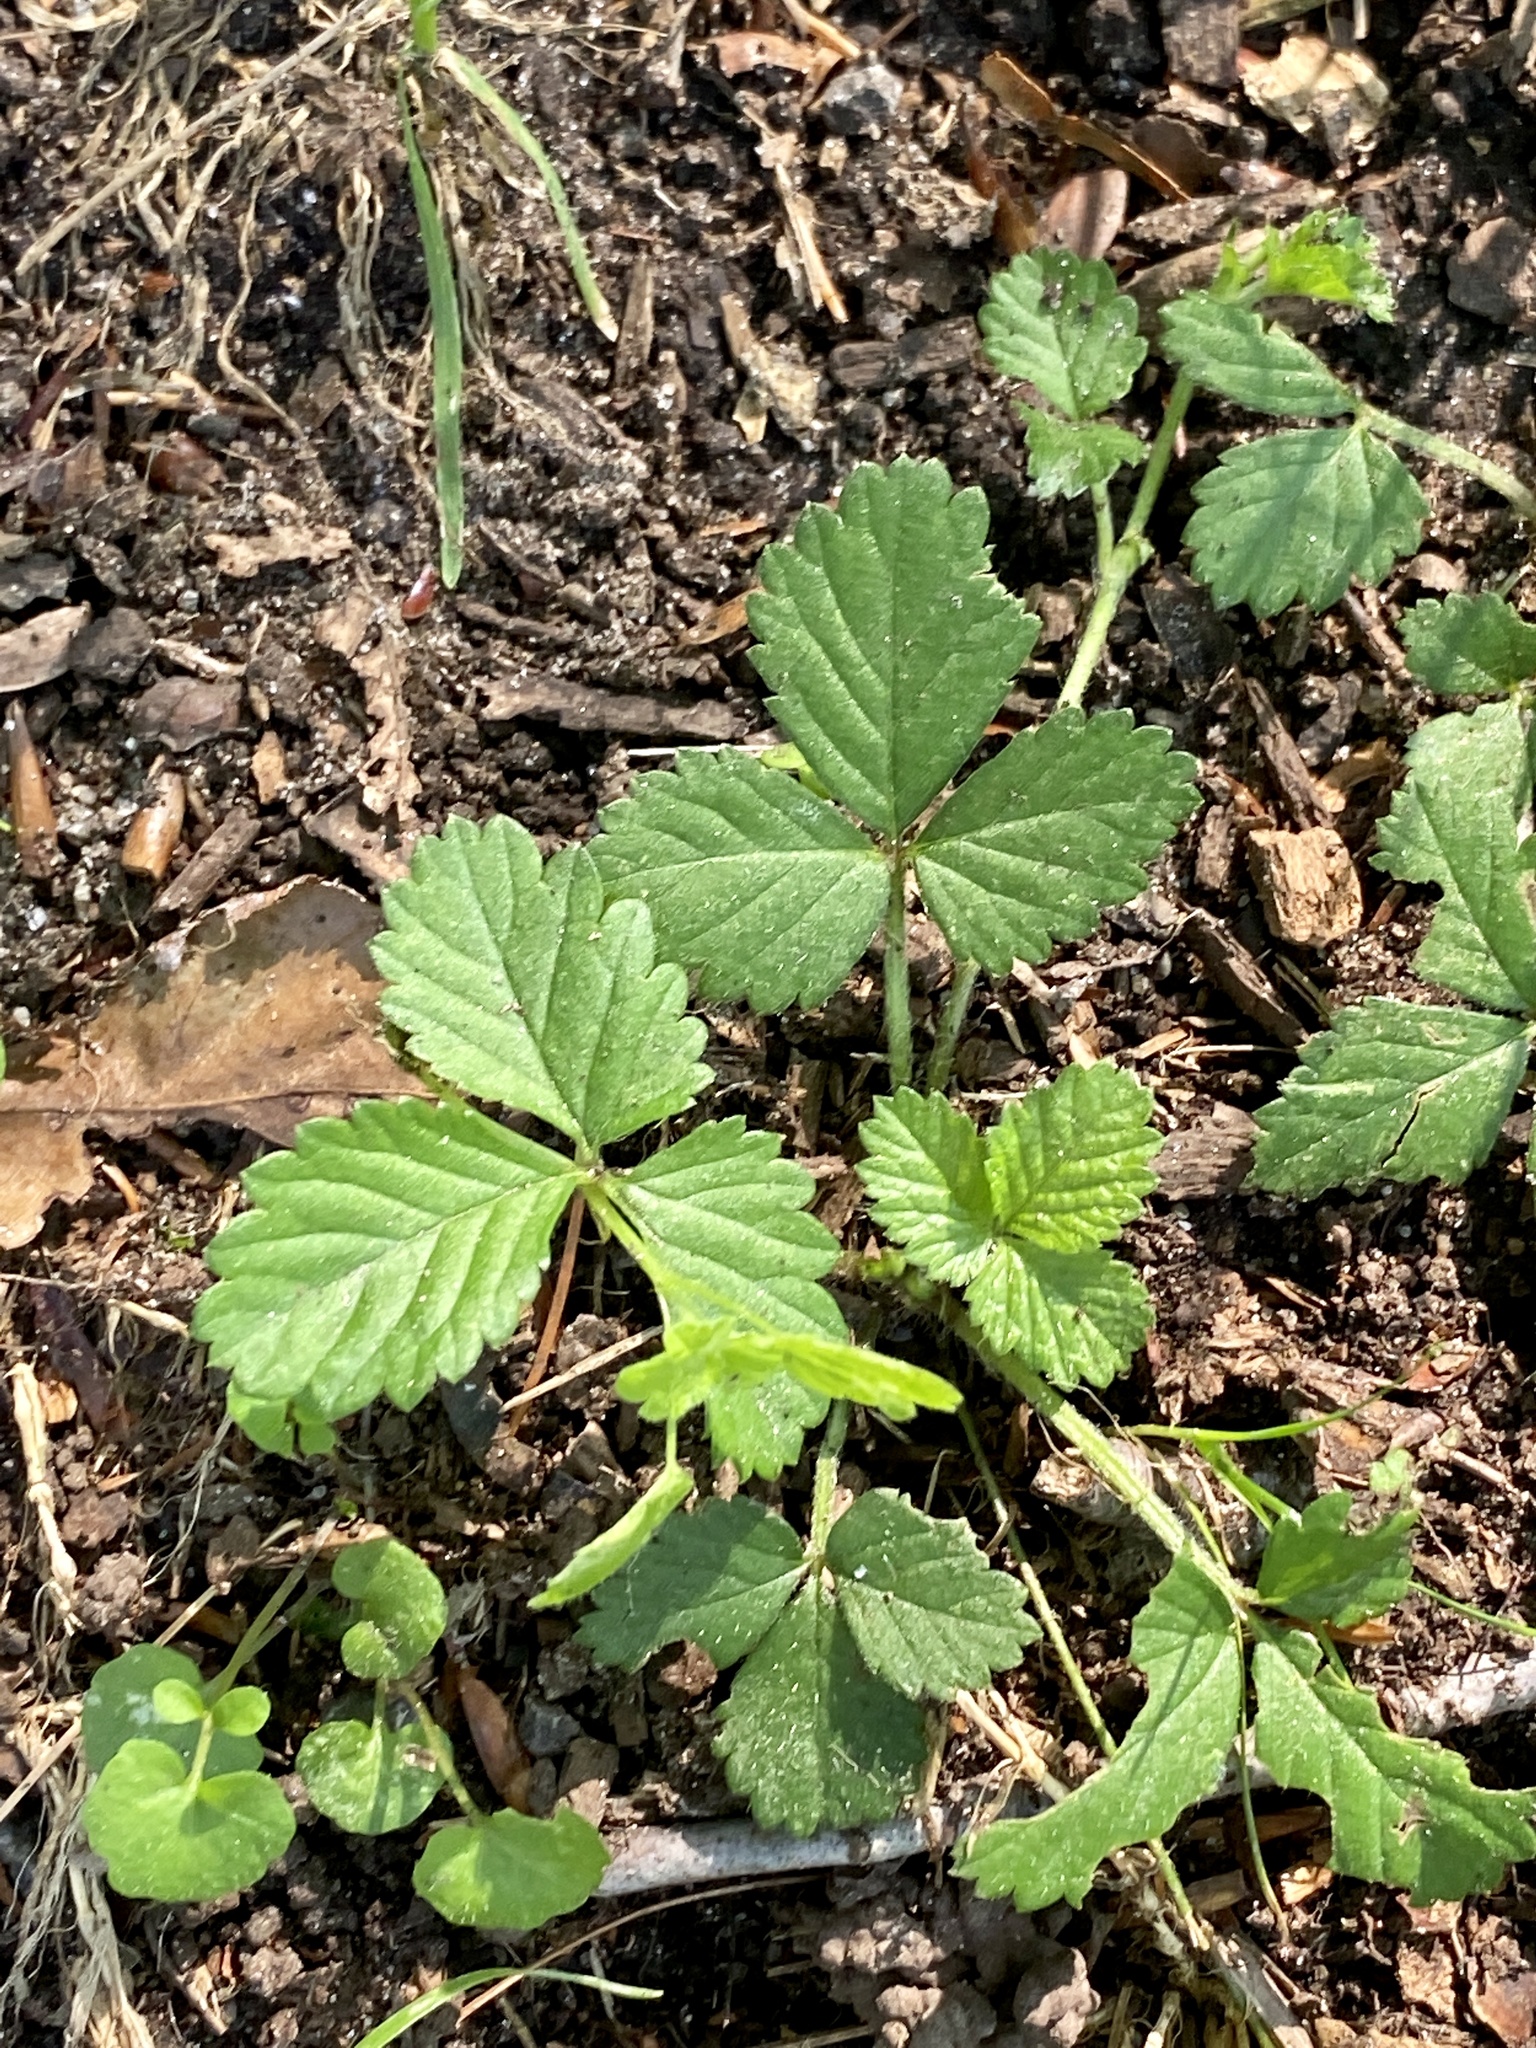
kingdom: Plantae
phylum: Tracheophyta
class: Magnoliopsida
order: Rosales
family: Rosaceae
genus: Potentilla
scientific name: Potentilla indica
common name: Yellow-flowered strawberry
